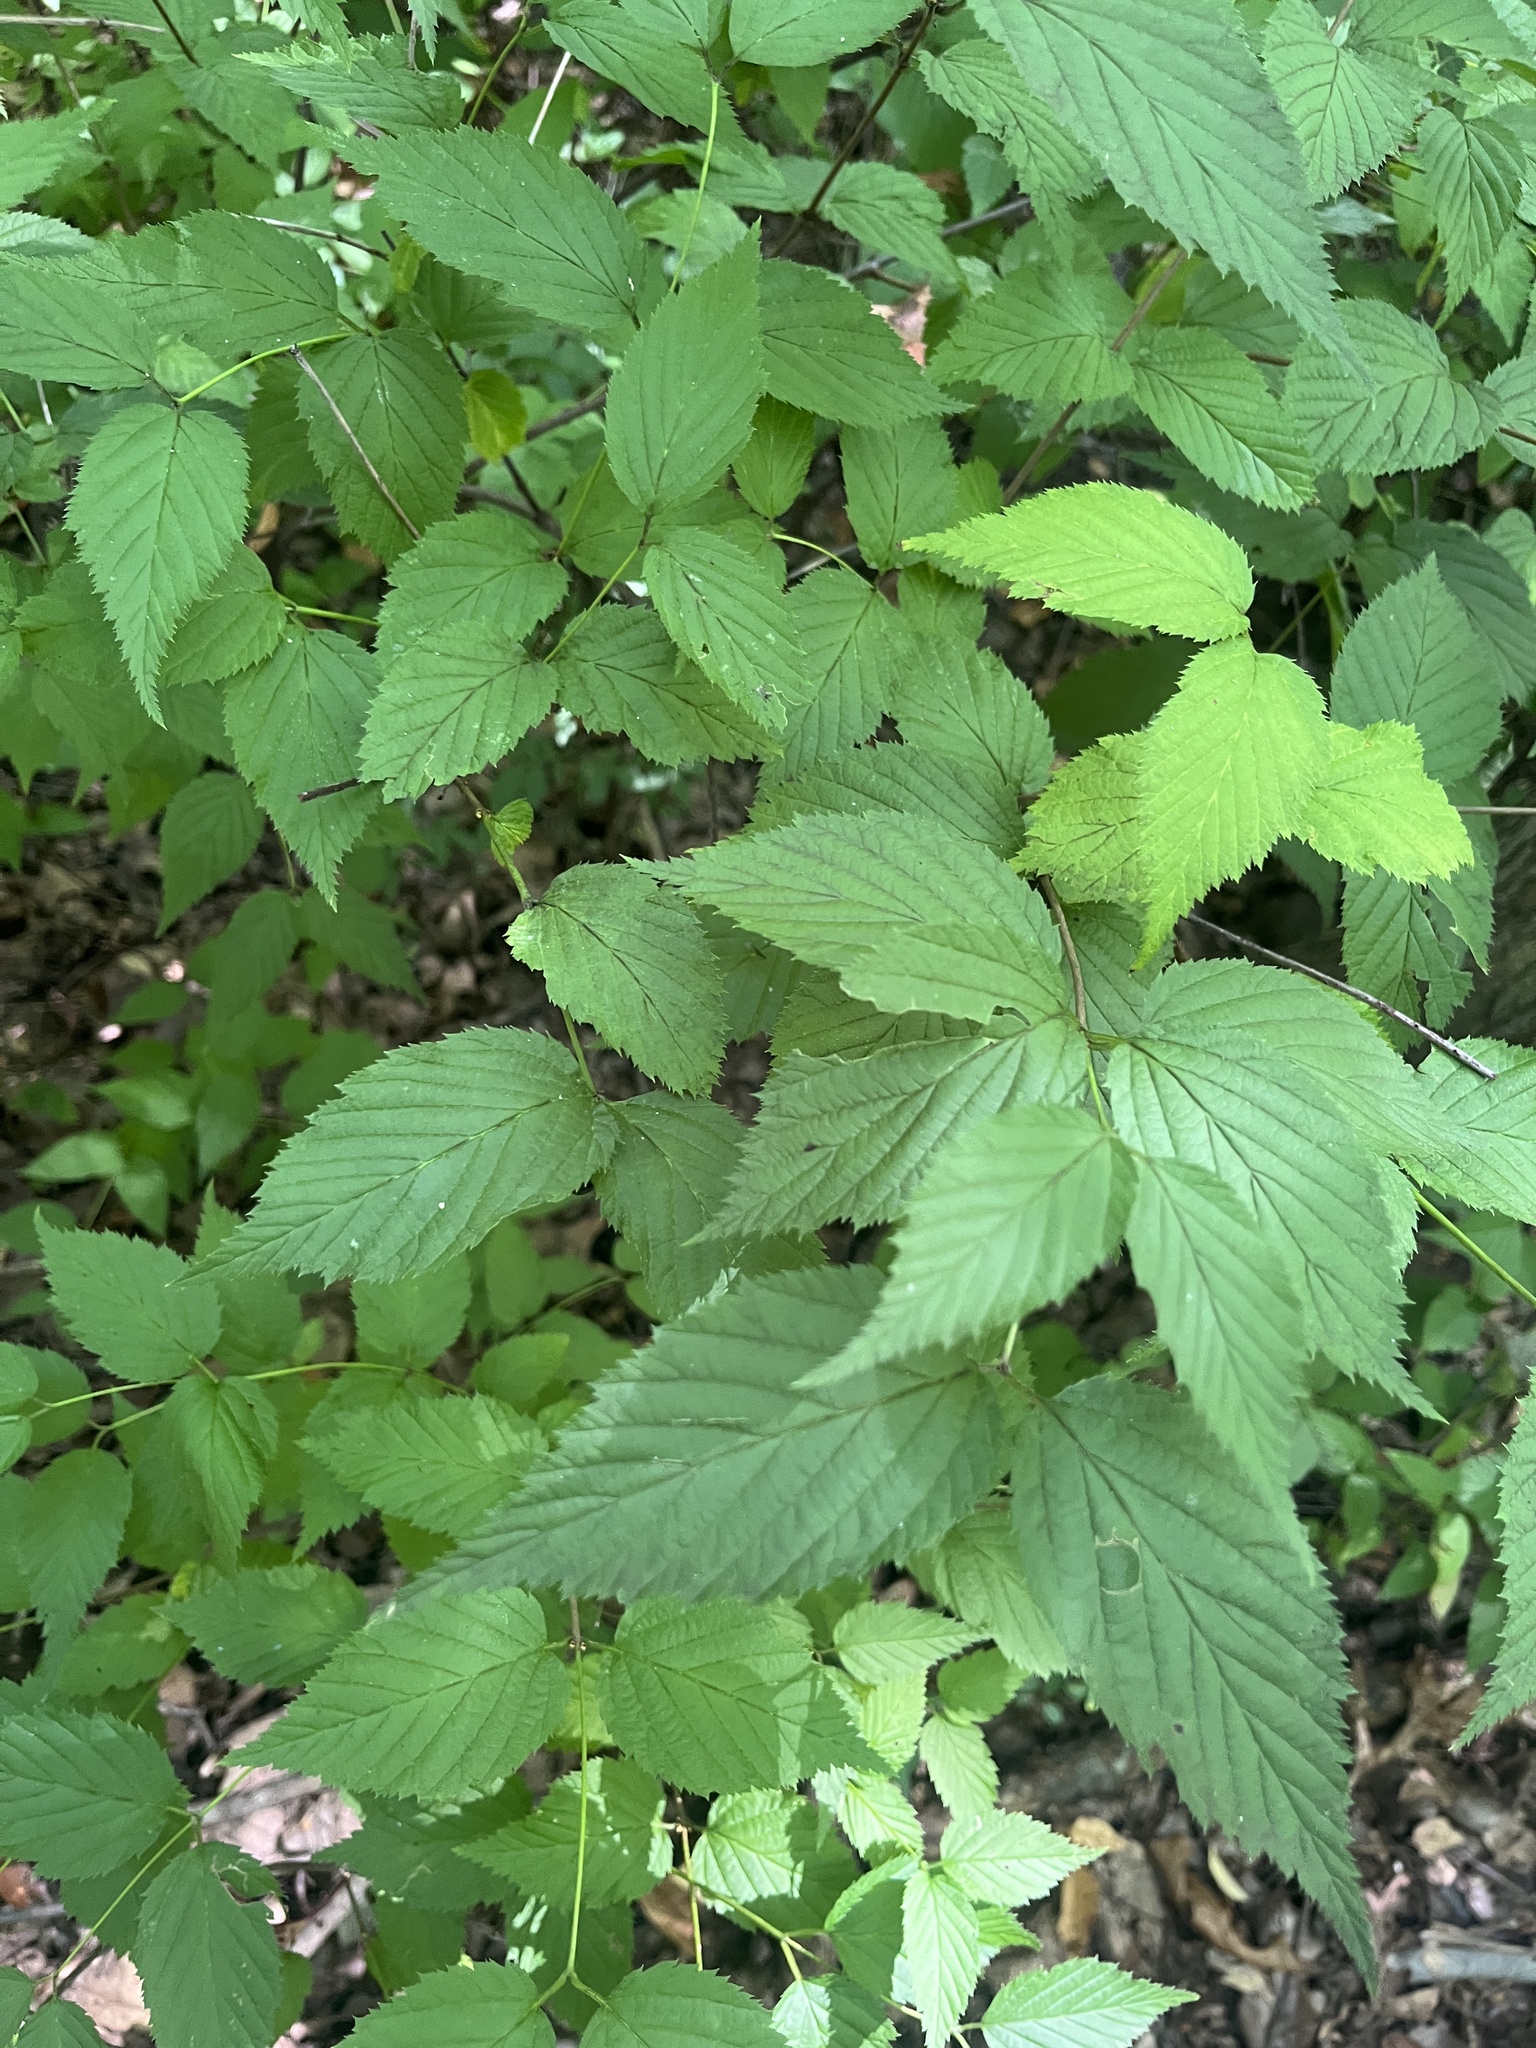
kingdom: Plantae
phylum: Tracheophyta
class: Magnoliopsida
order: Rosales
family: Rosaceae
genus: Rhodotypos
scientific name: Rhodotypos scandens
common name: Jetbead
